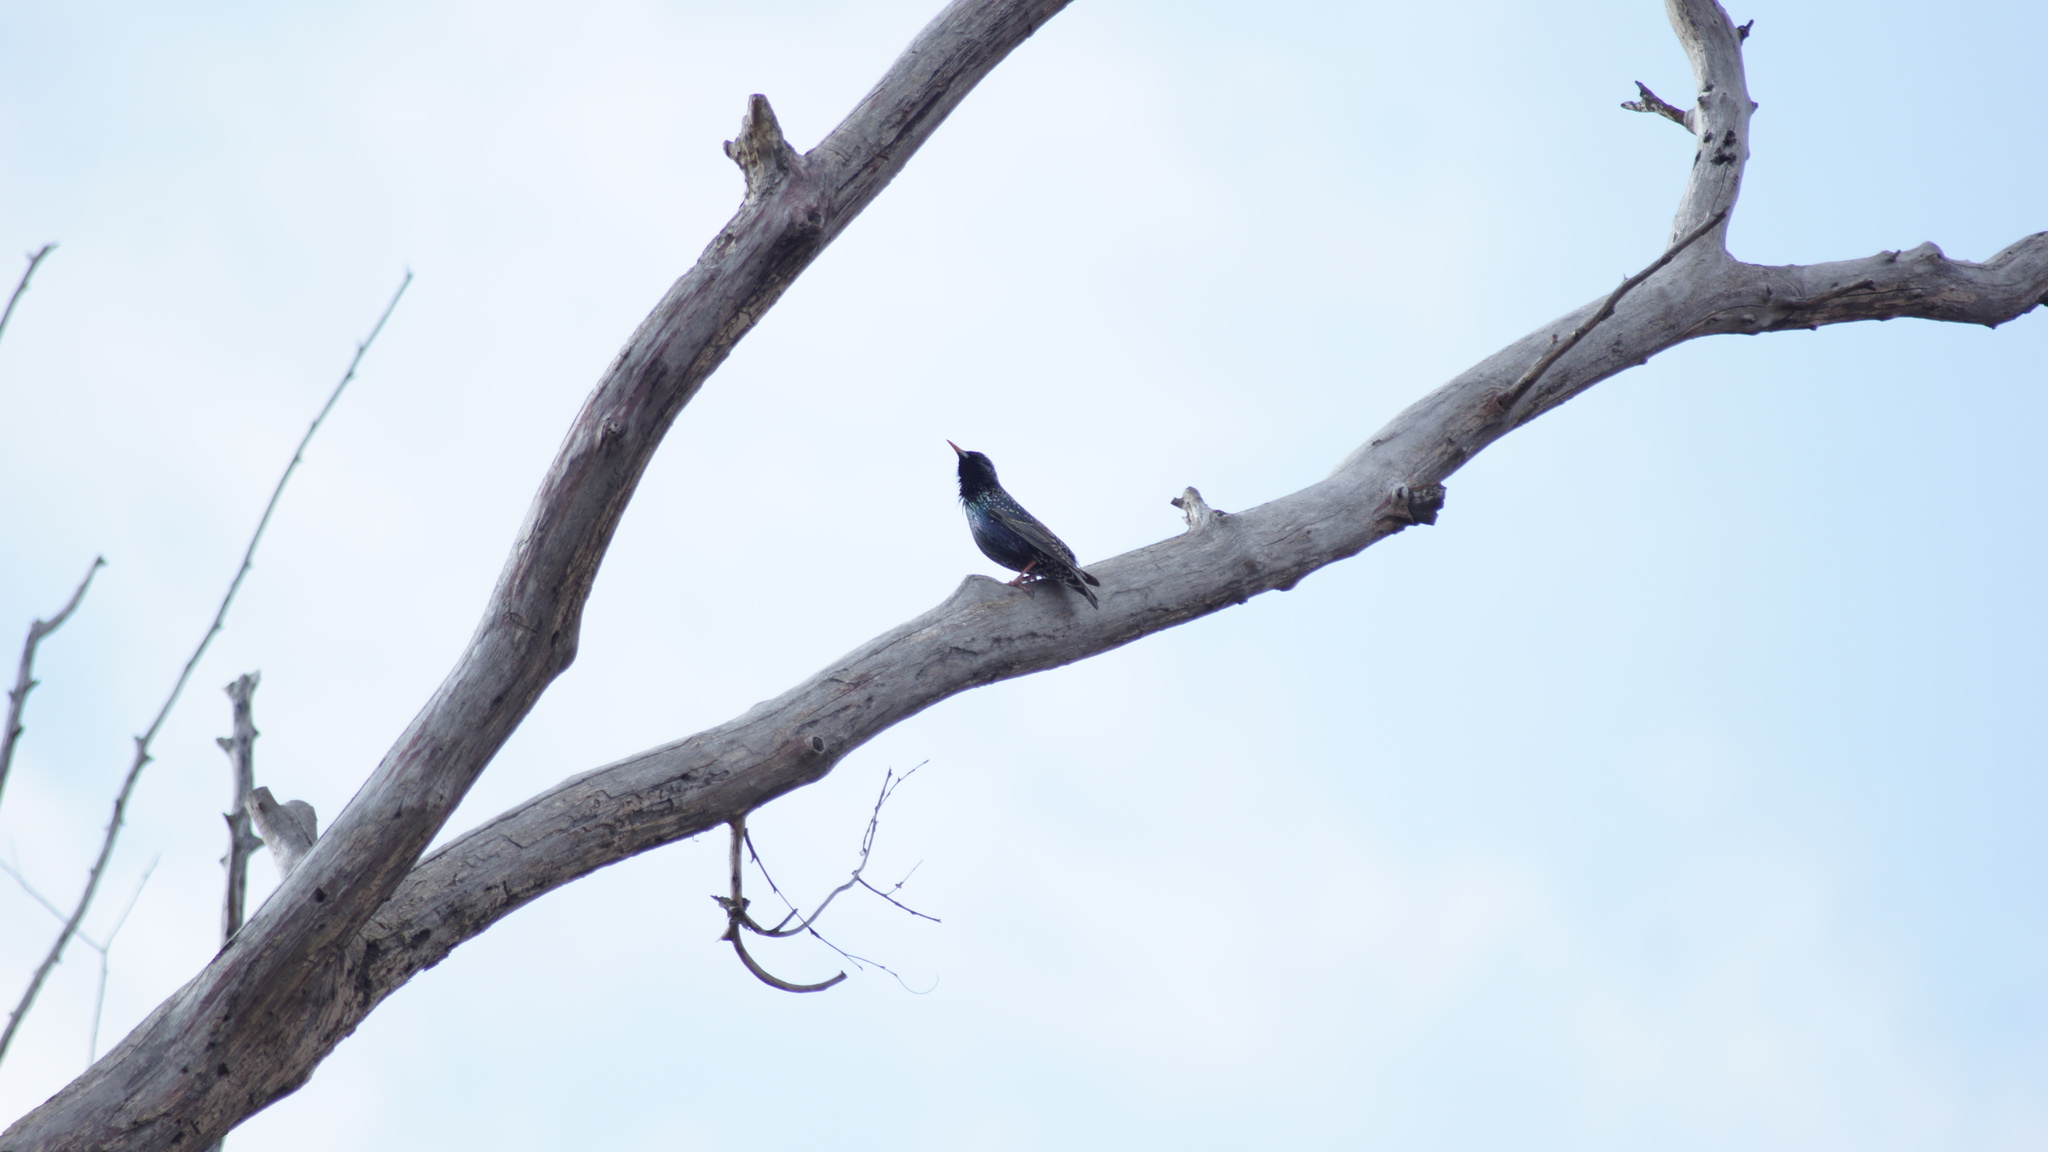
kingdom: Animalia
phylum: Chordata
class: Aves
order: Passeriformes
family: Sturnidae
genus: Sturnus
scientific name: Sturnus vulgaris
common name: Common starling
